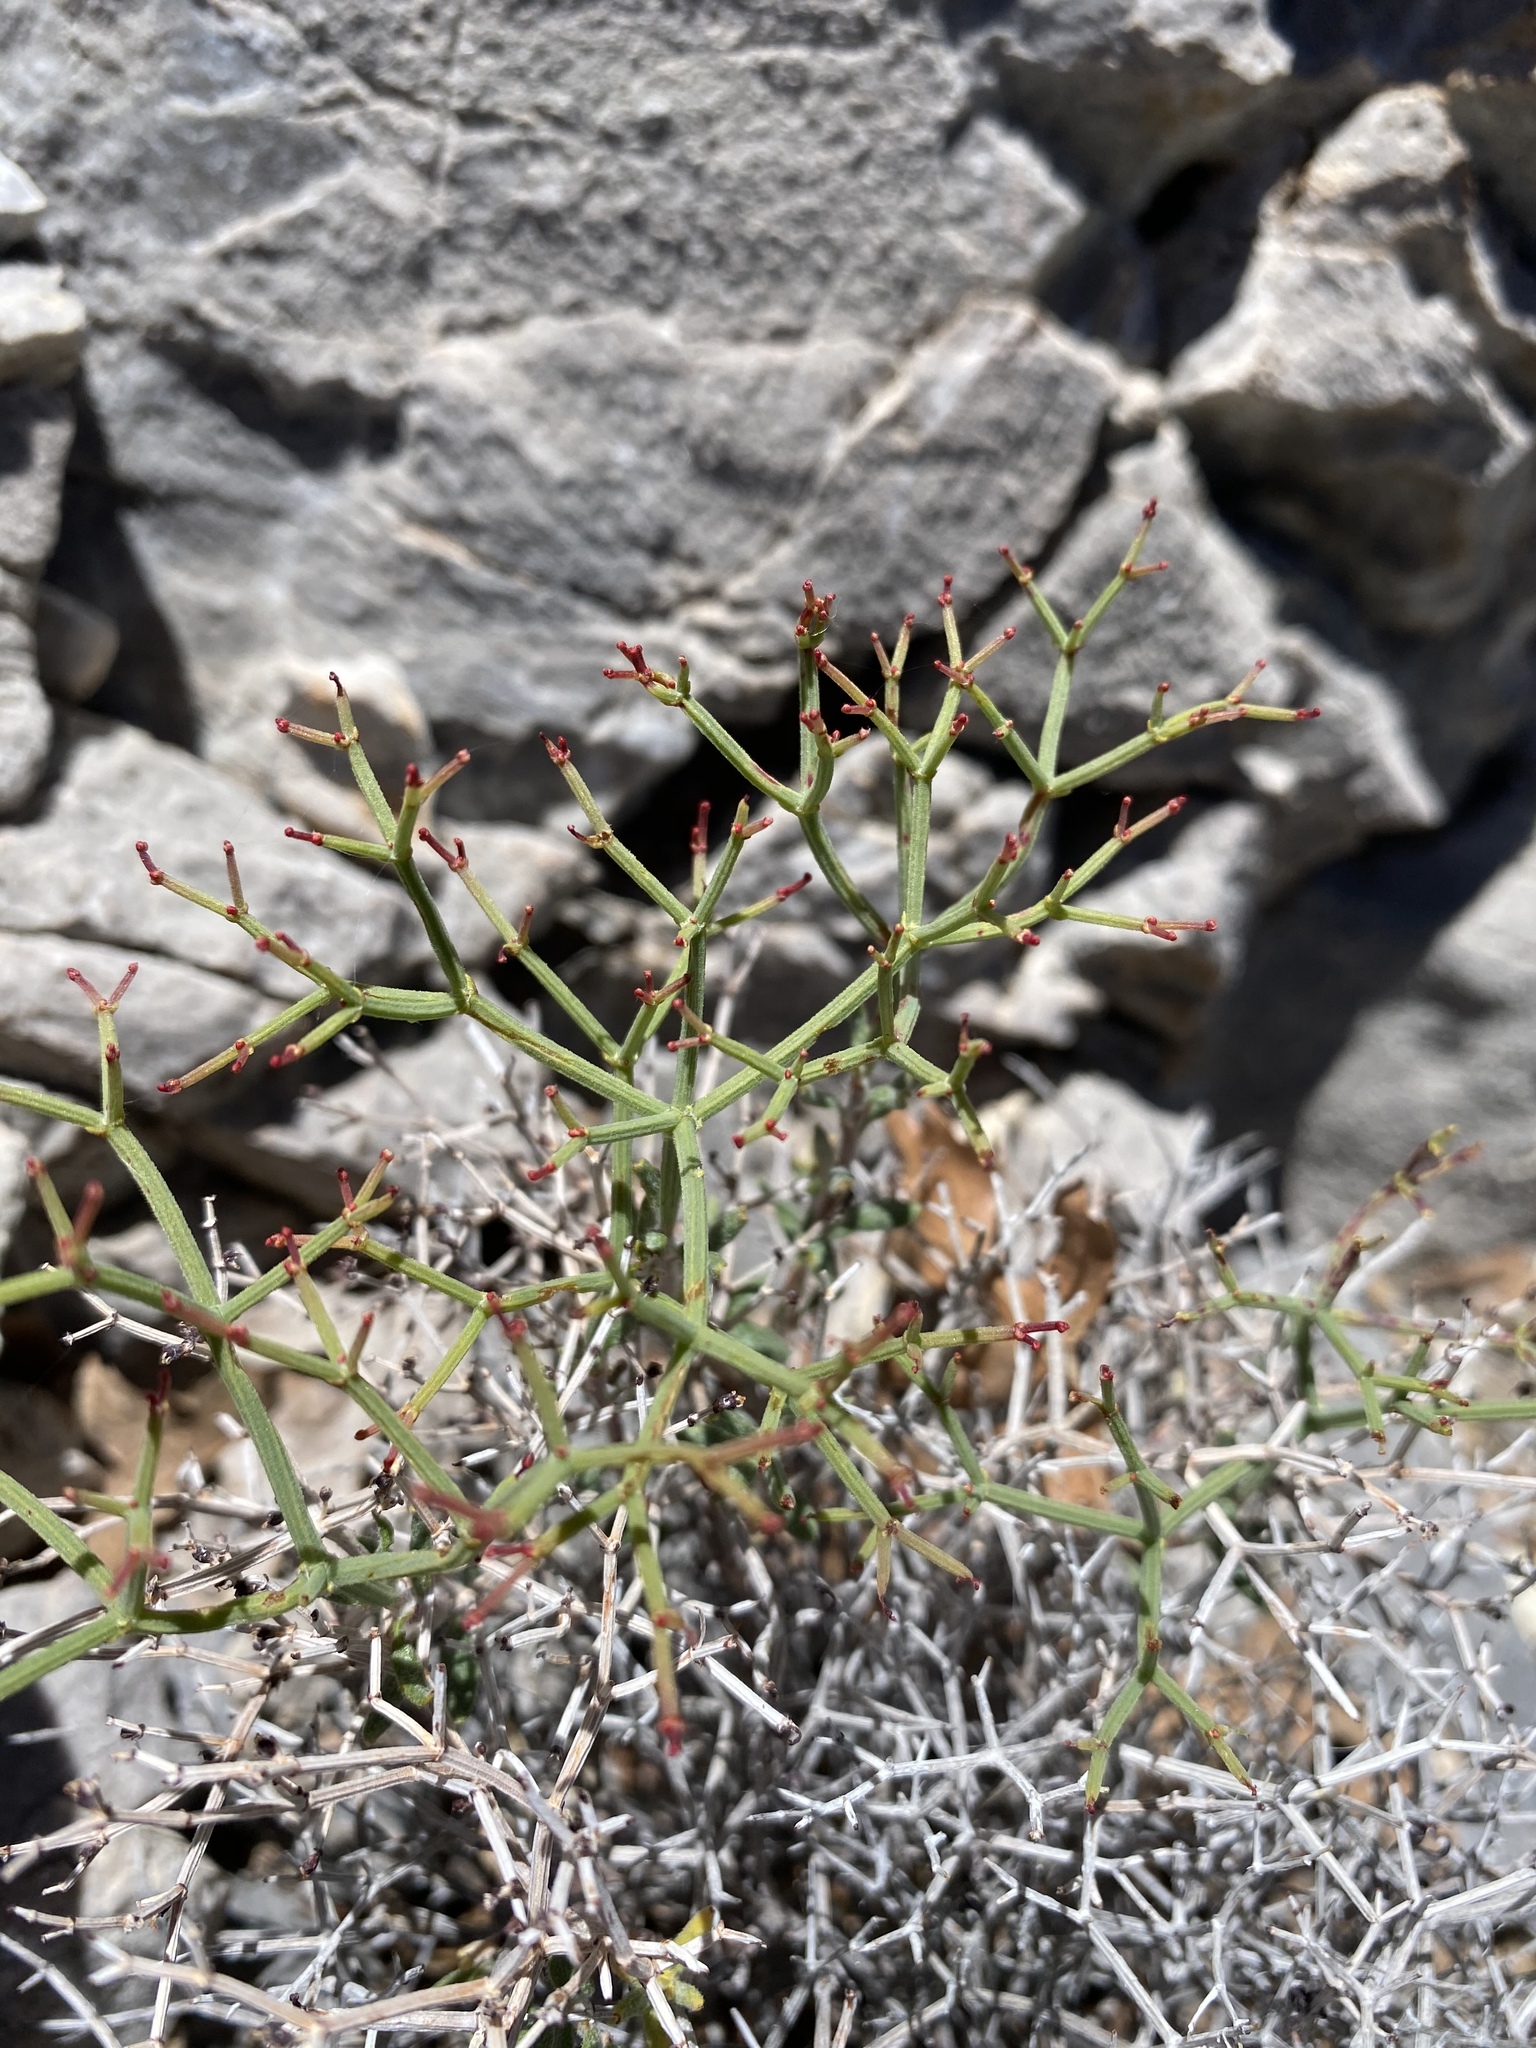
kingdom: Plantae
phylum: Tracheophyta
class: Magnoliopsida
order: Caryophyllales
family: Polygonaceae
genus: Eriogonum
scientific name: Eriogonum heermannii
